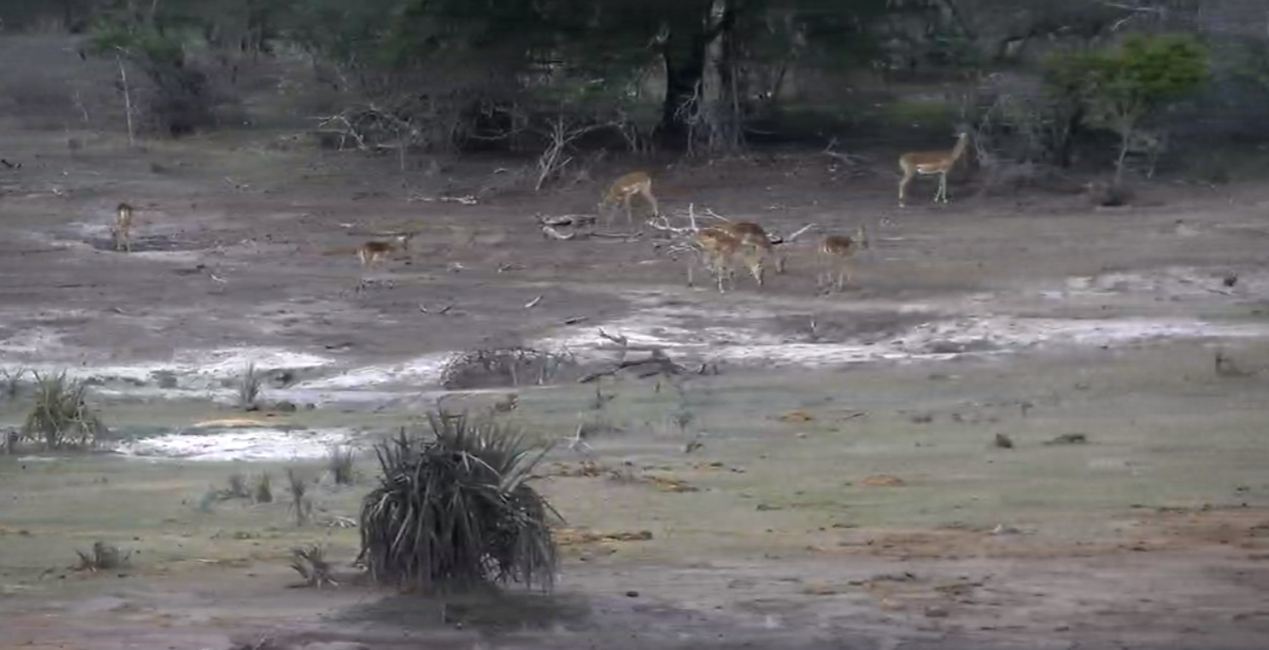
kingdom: Animalia
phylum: Chordata
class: Mammalia
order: Artiodactyla
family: Bovidae
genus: Aepyceros
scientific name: Aepyceros melampus
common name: Impala
